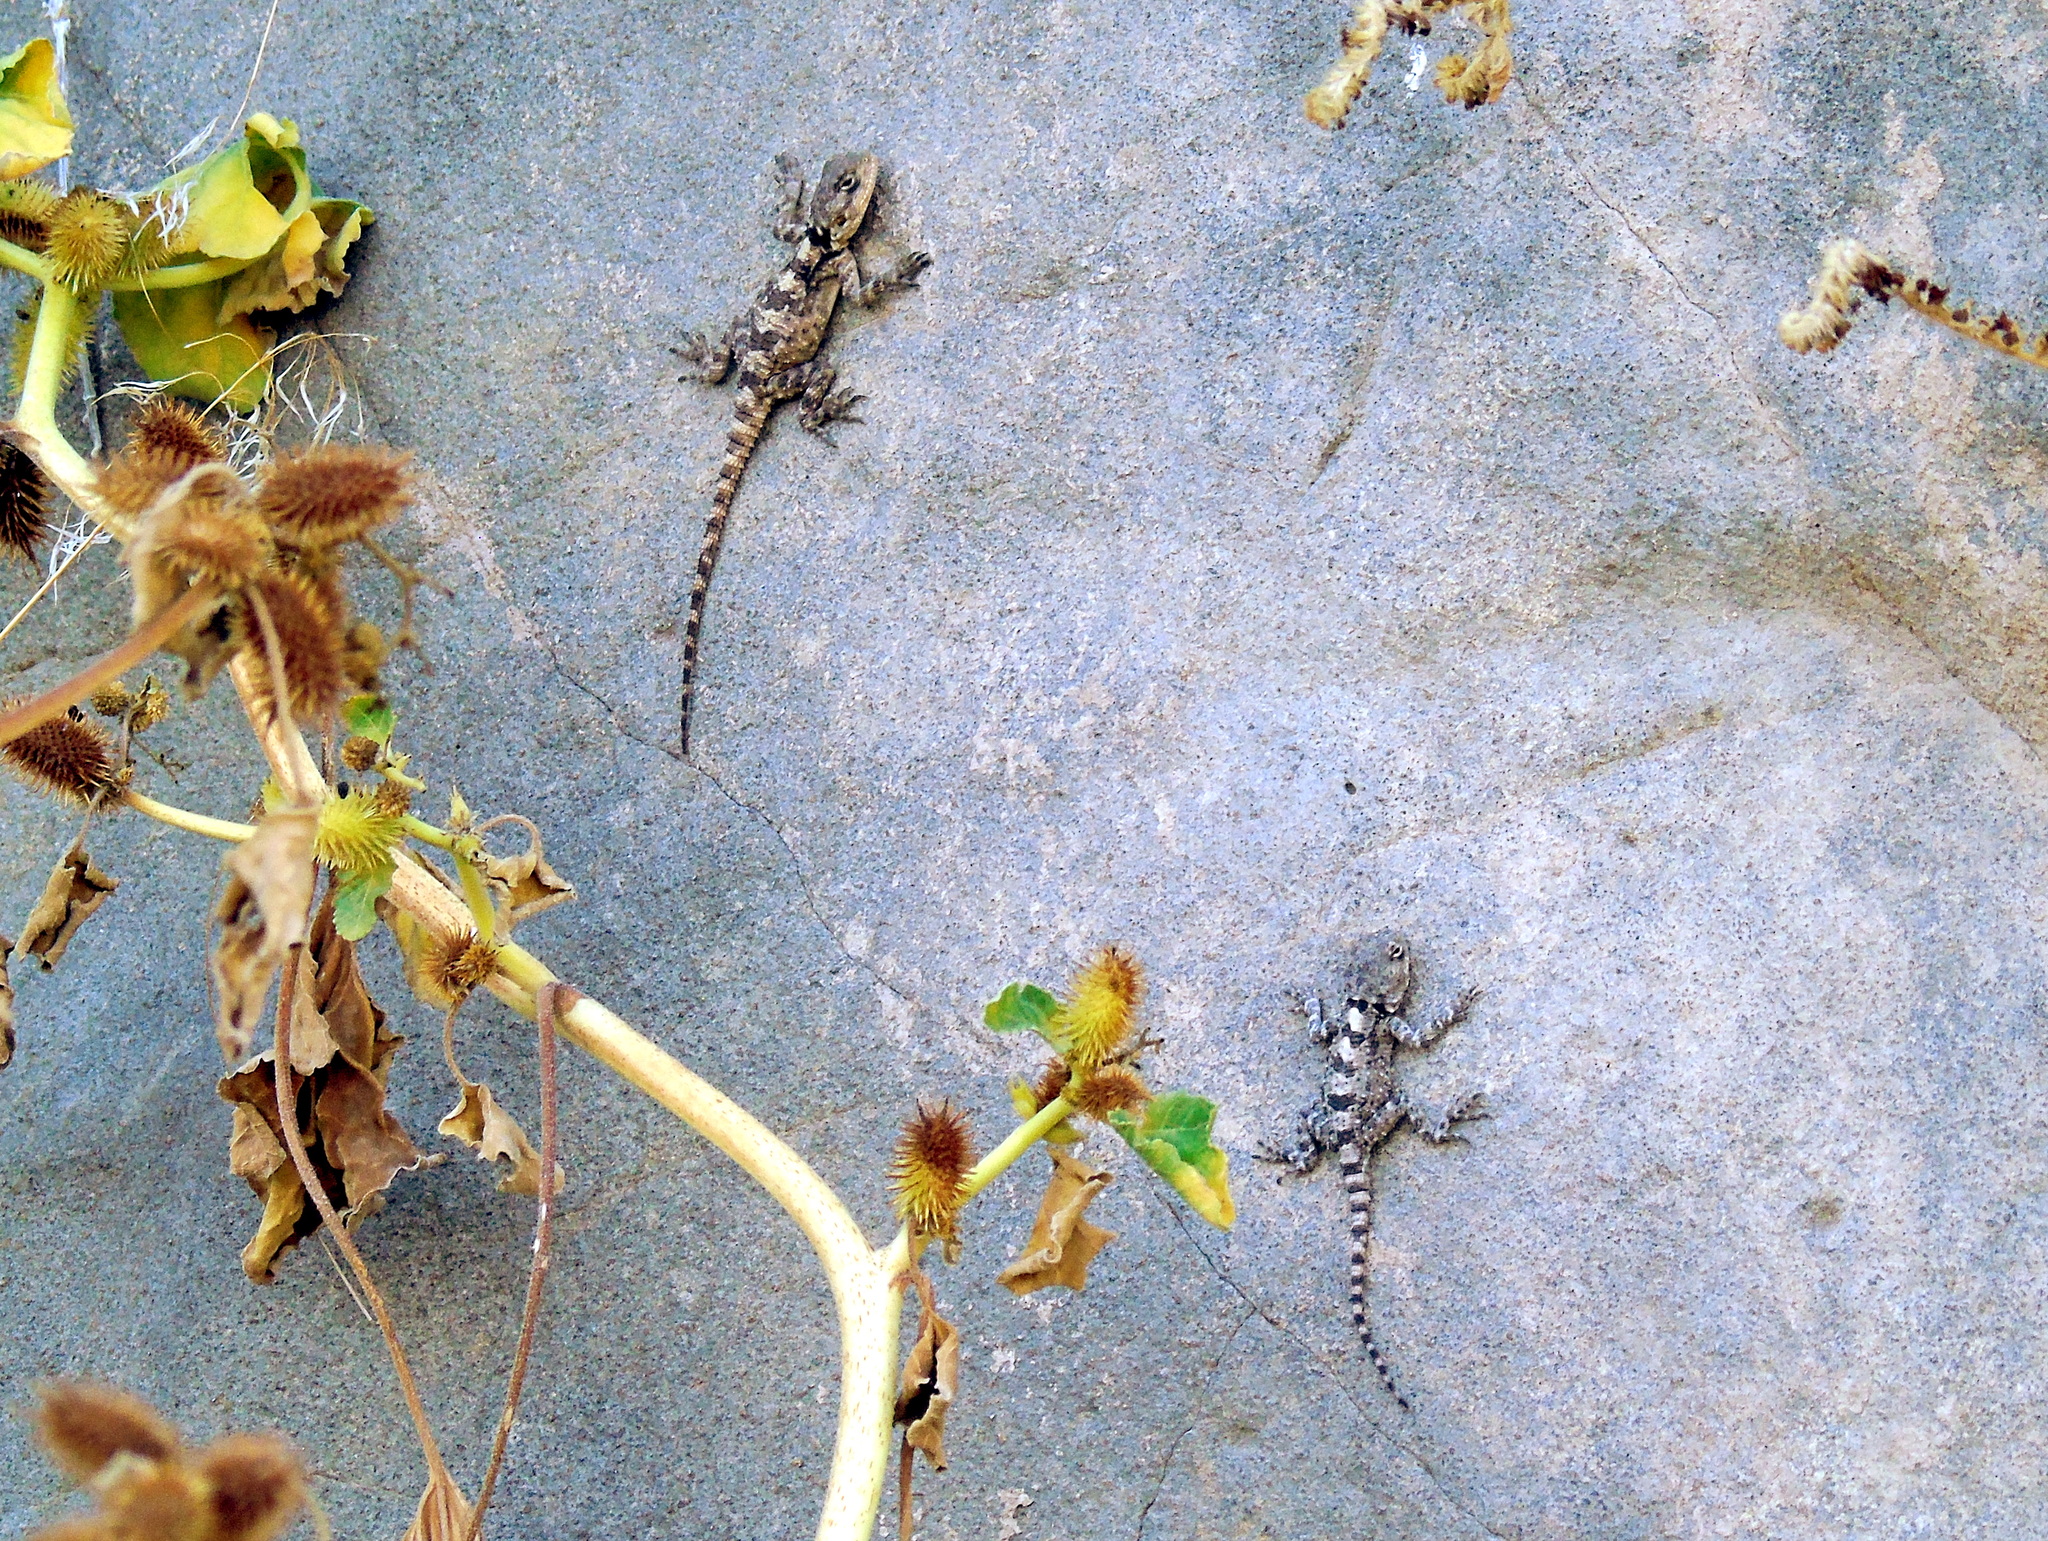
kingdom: Animalia
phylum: Chordata
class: Squamata
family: Agamidae
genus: Stellagama
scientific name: Stellagama stellio
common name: Starred agama
